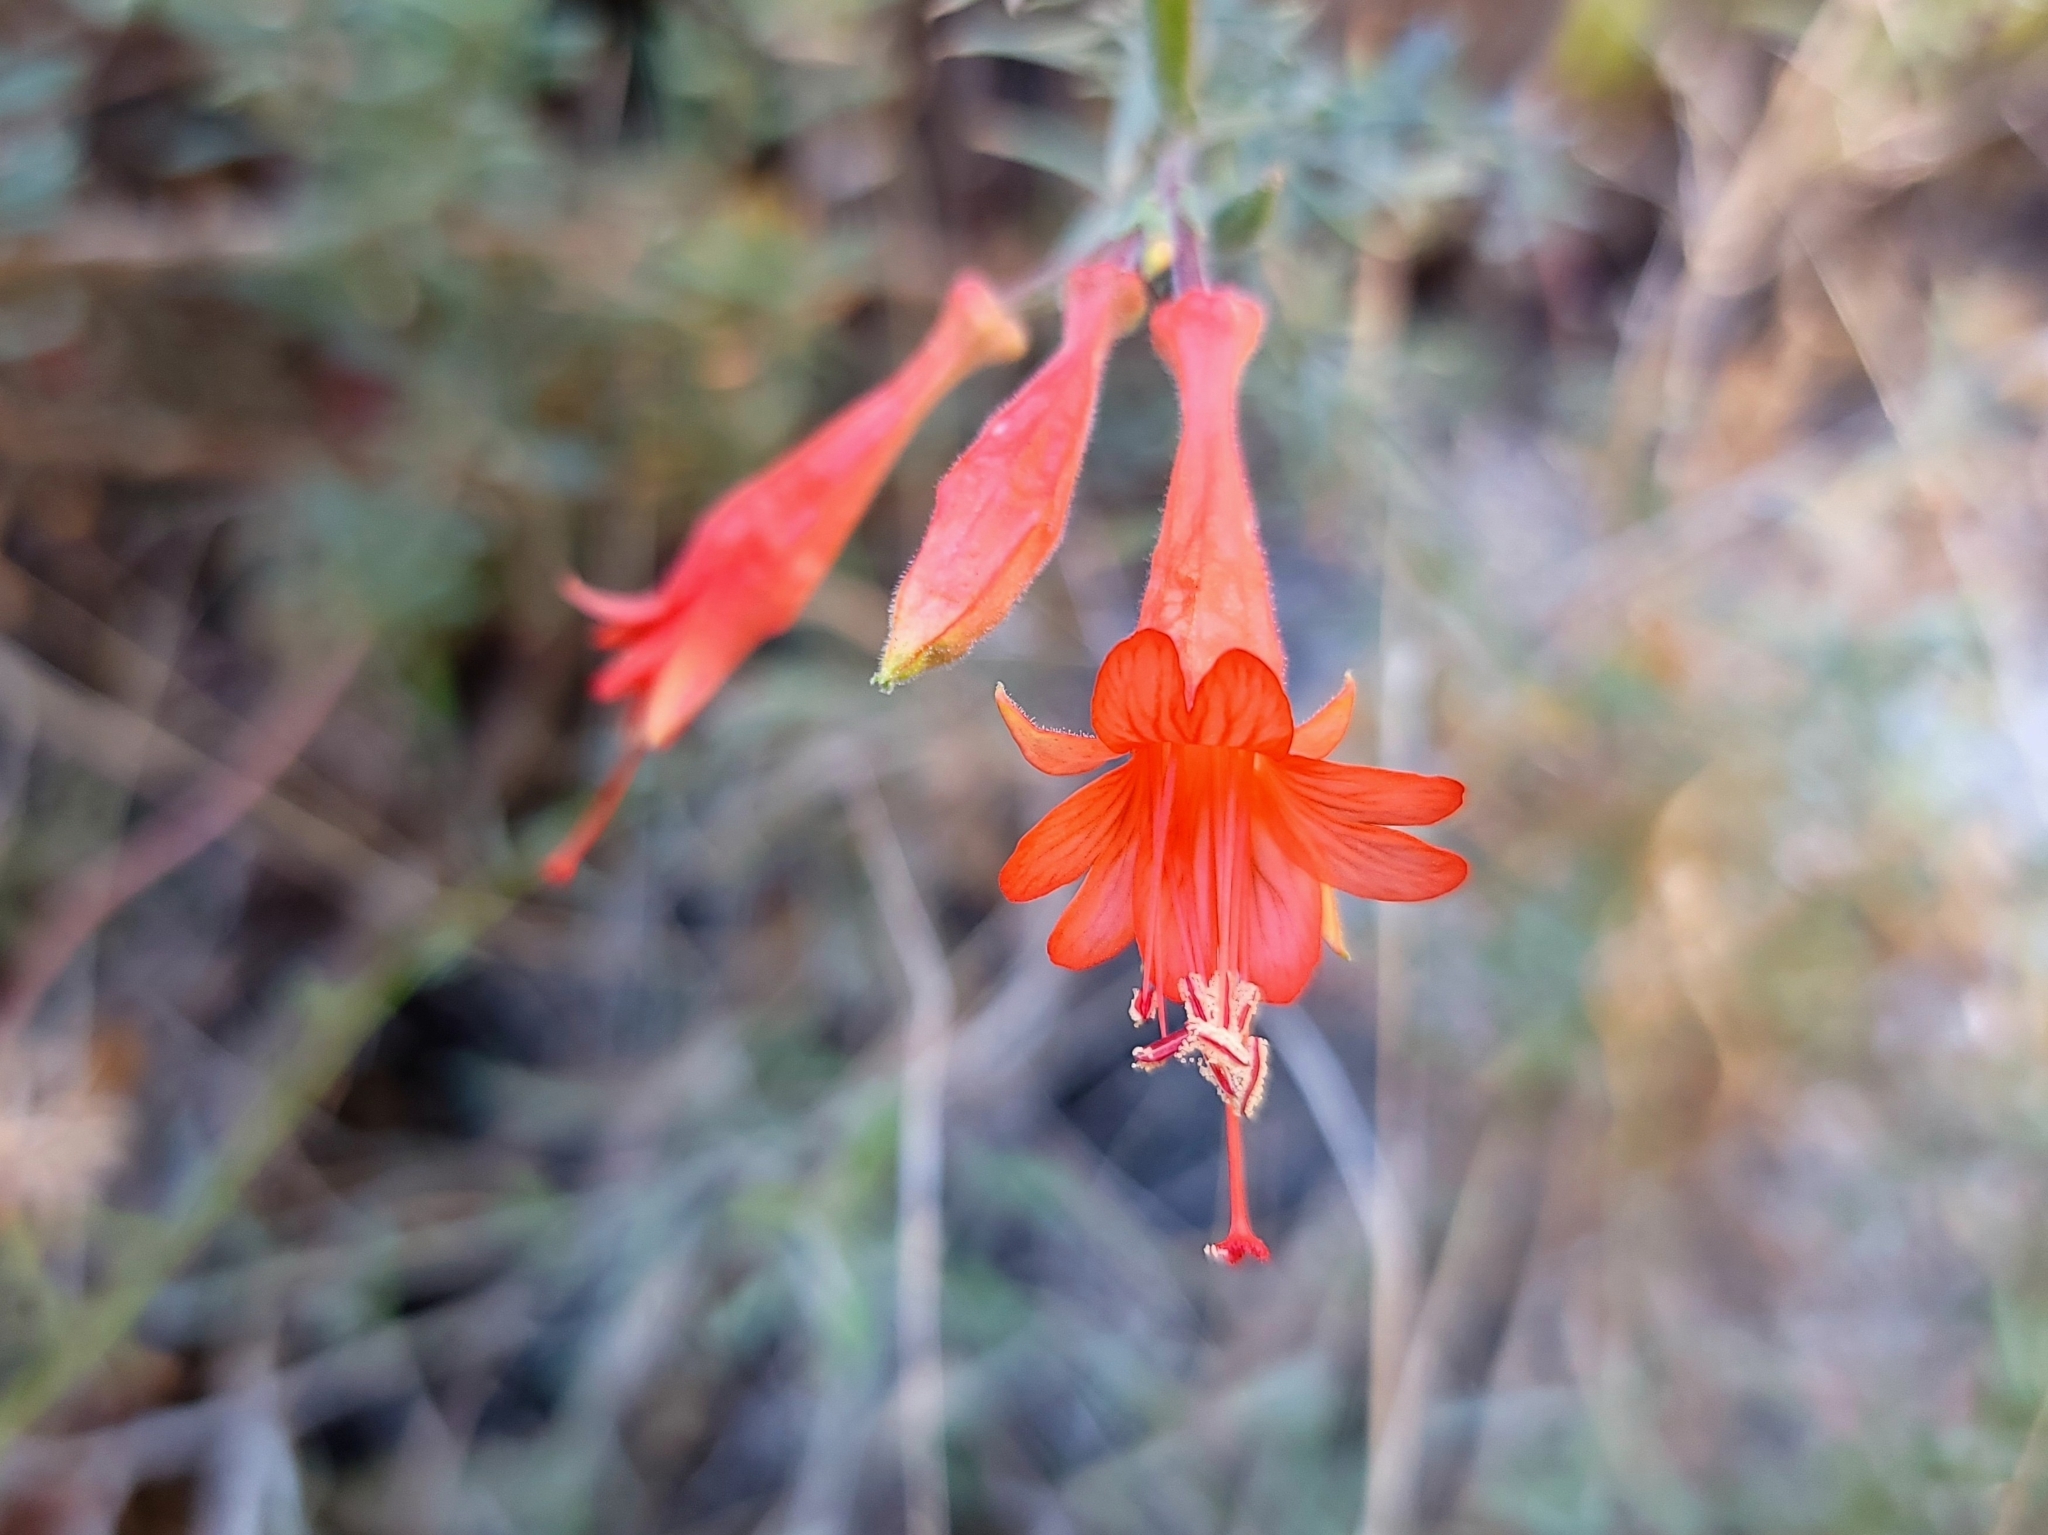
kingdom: Plantae
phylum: Tracheophyta
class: Magnoliopsida
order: Myrtales
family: Onagraceae
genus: Epilobium
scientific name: Epilobium canum
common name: California-fuchsia
